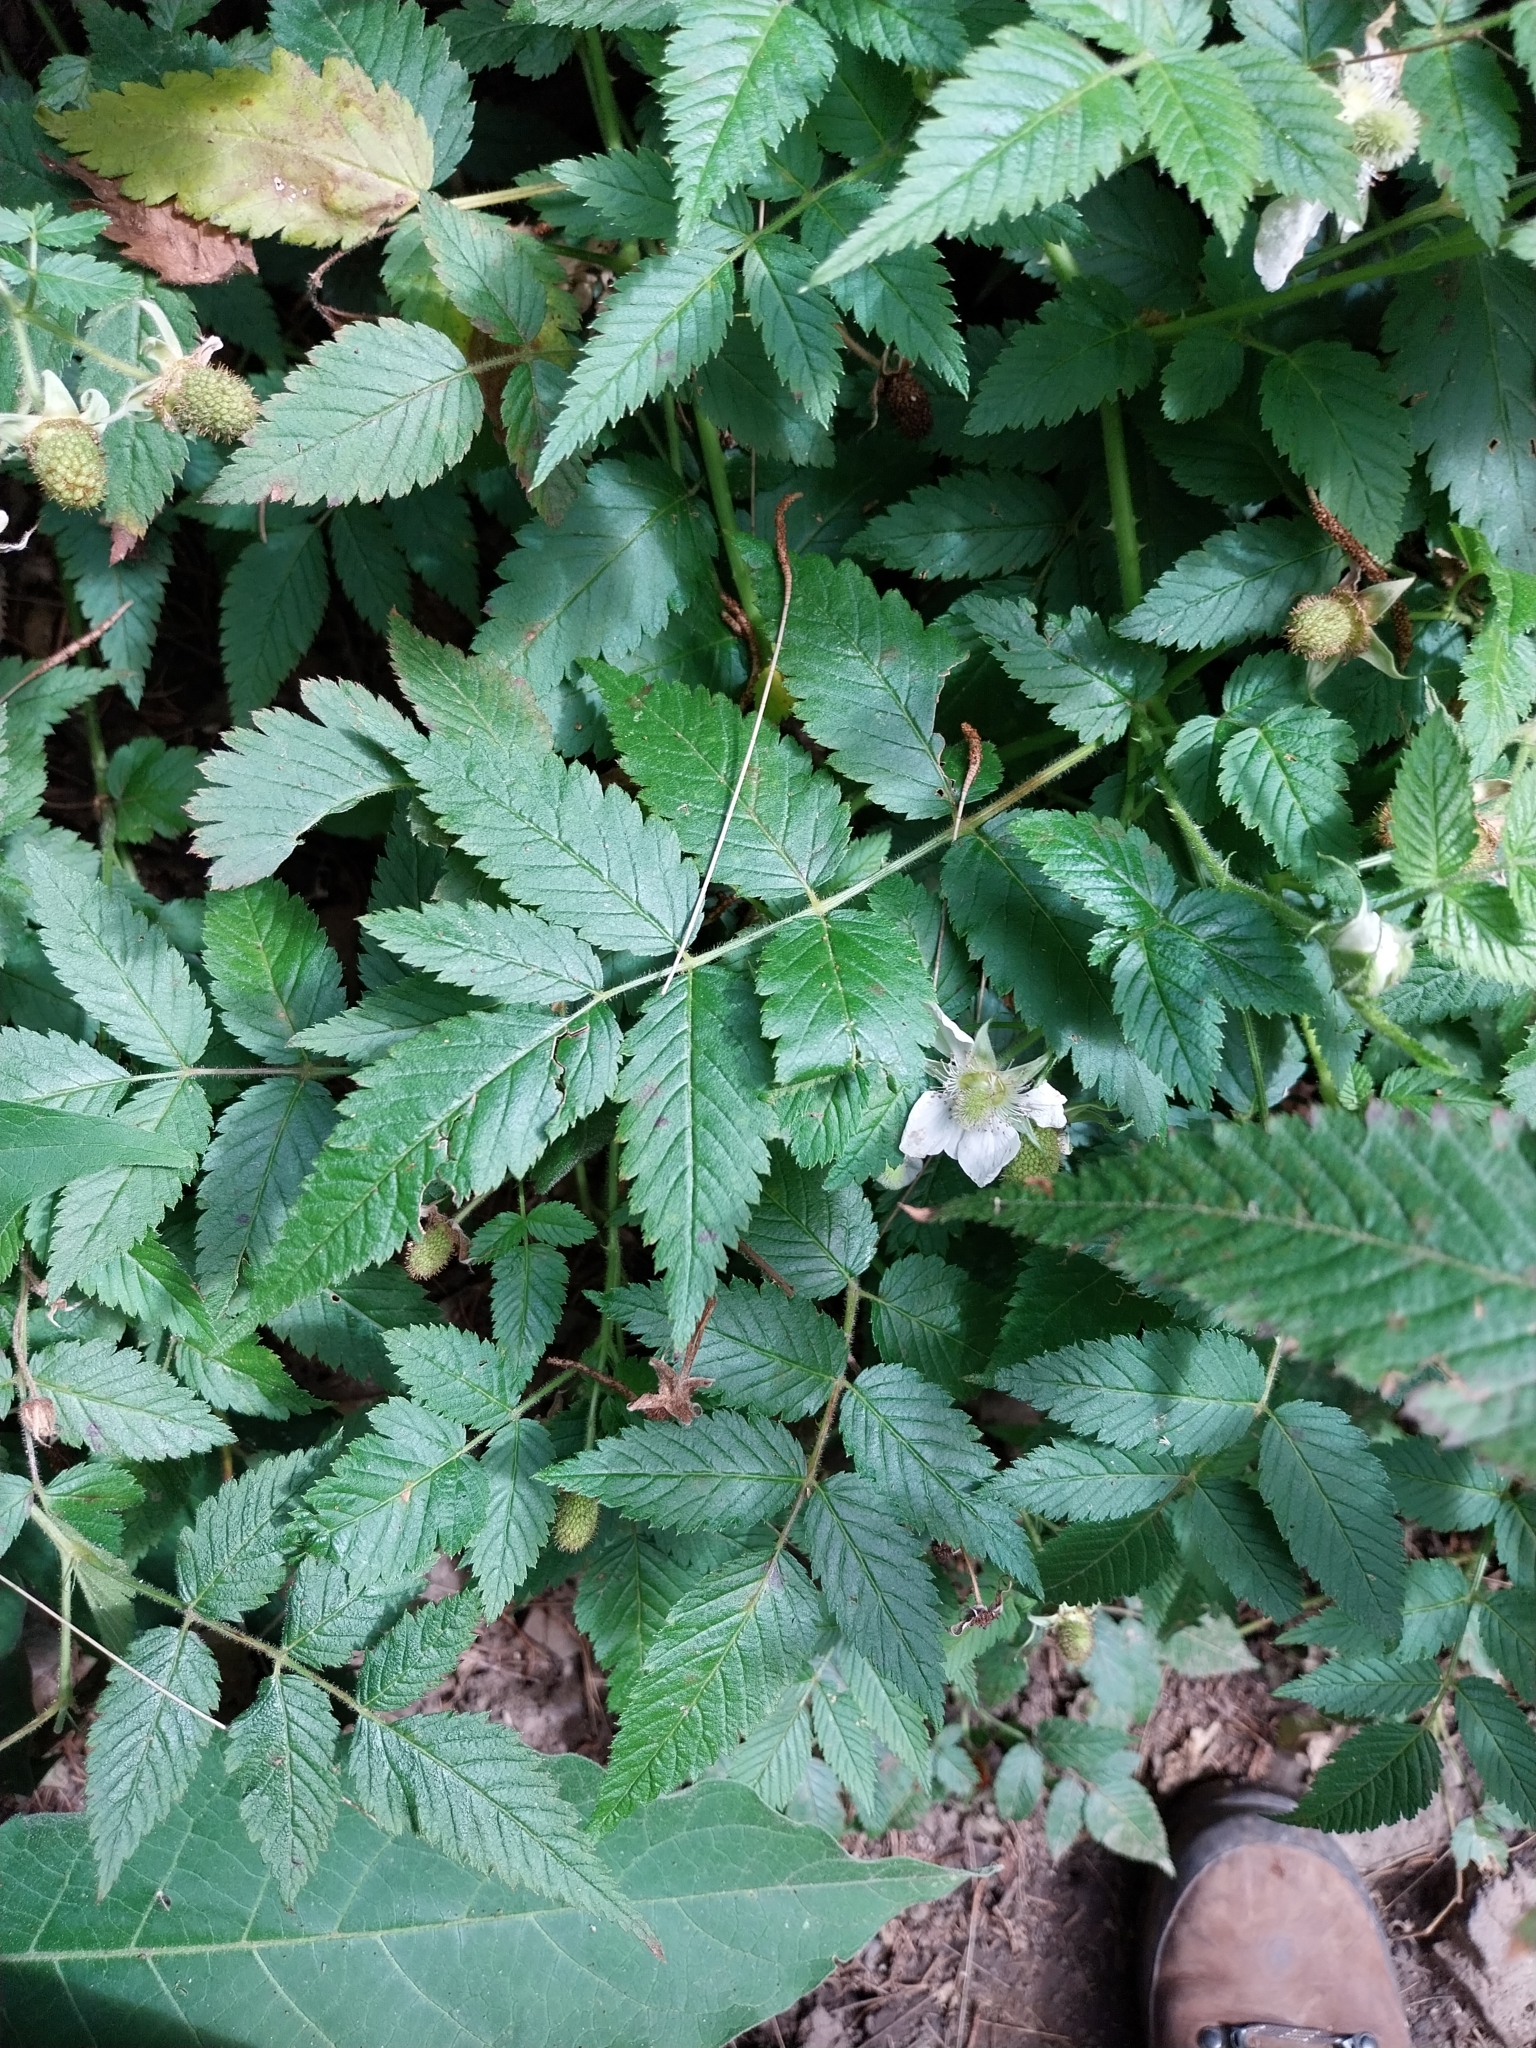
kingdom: Plantae
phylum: Tracheophyta
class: Magnoliopsida
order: Rosales
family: Rosaceae
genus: Rubus
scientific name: Rubus rosifolius
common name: Roseleaf raspberry
